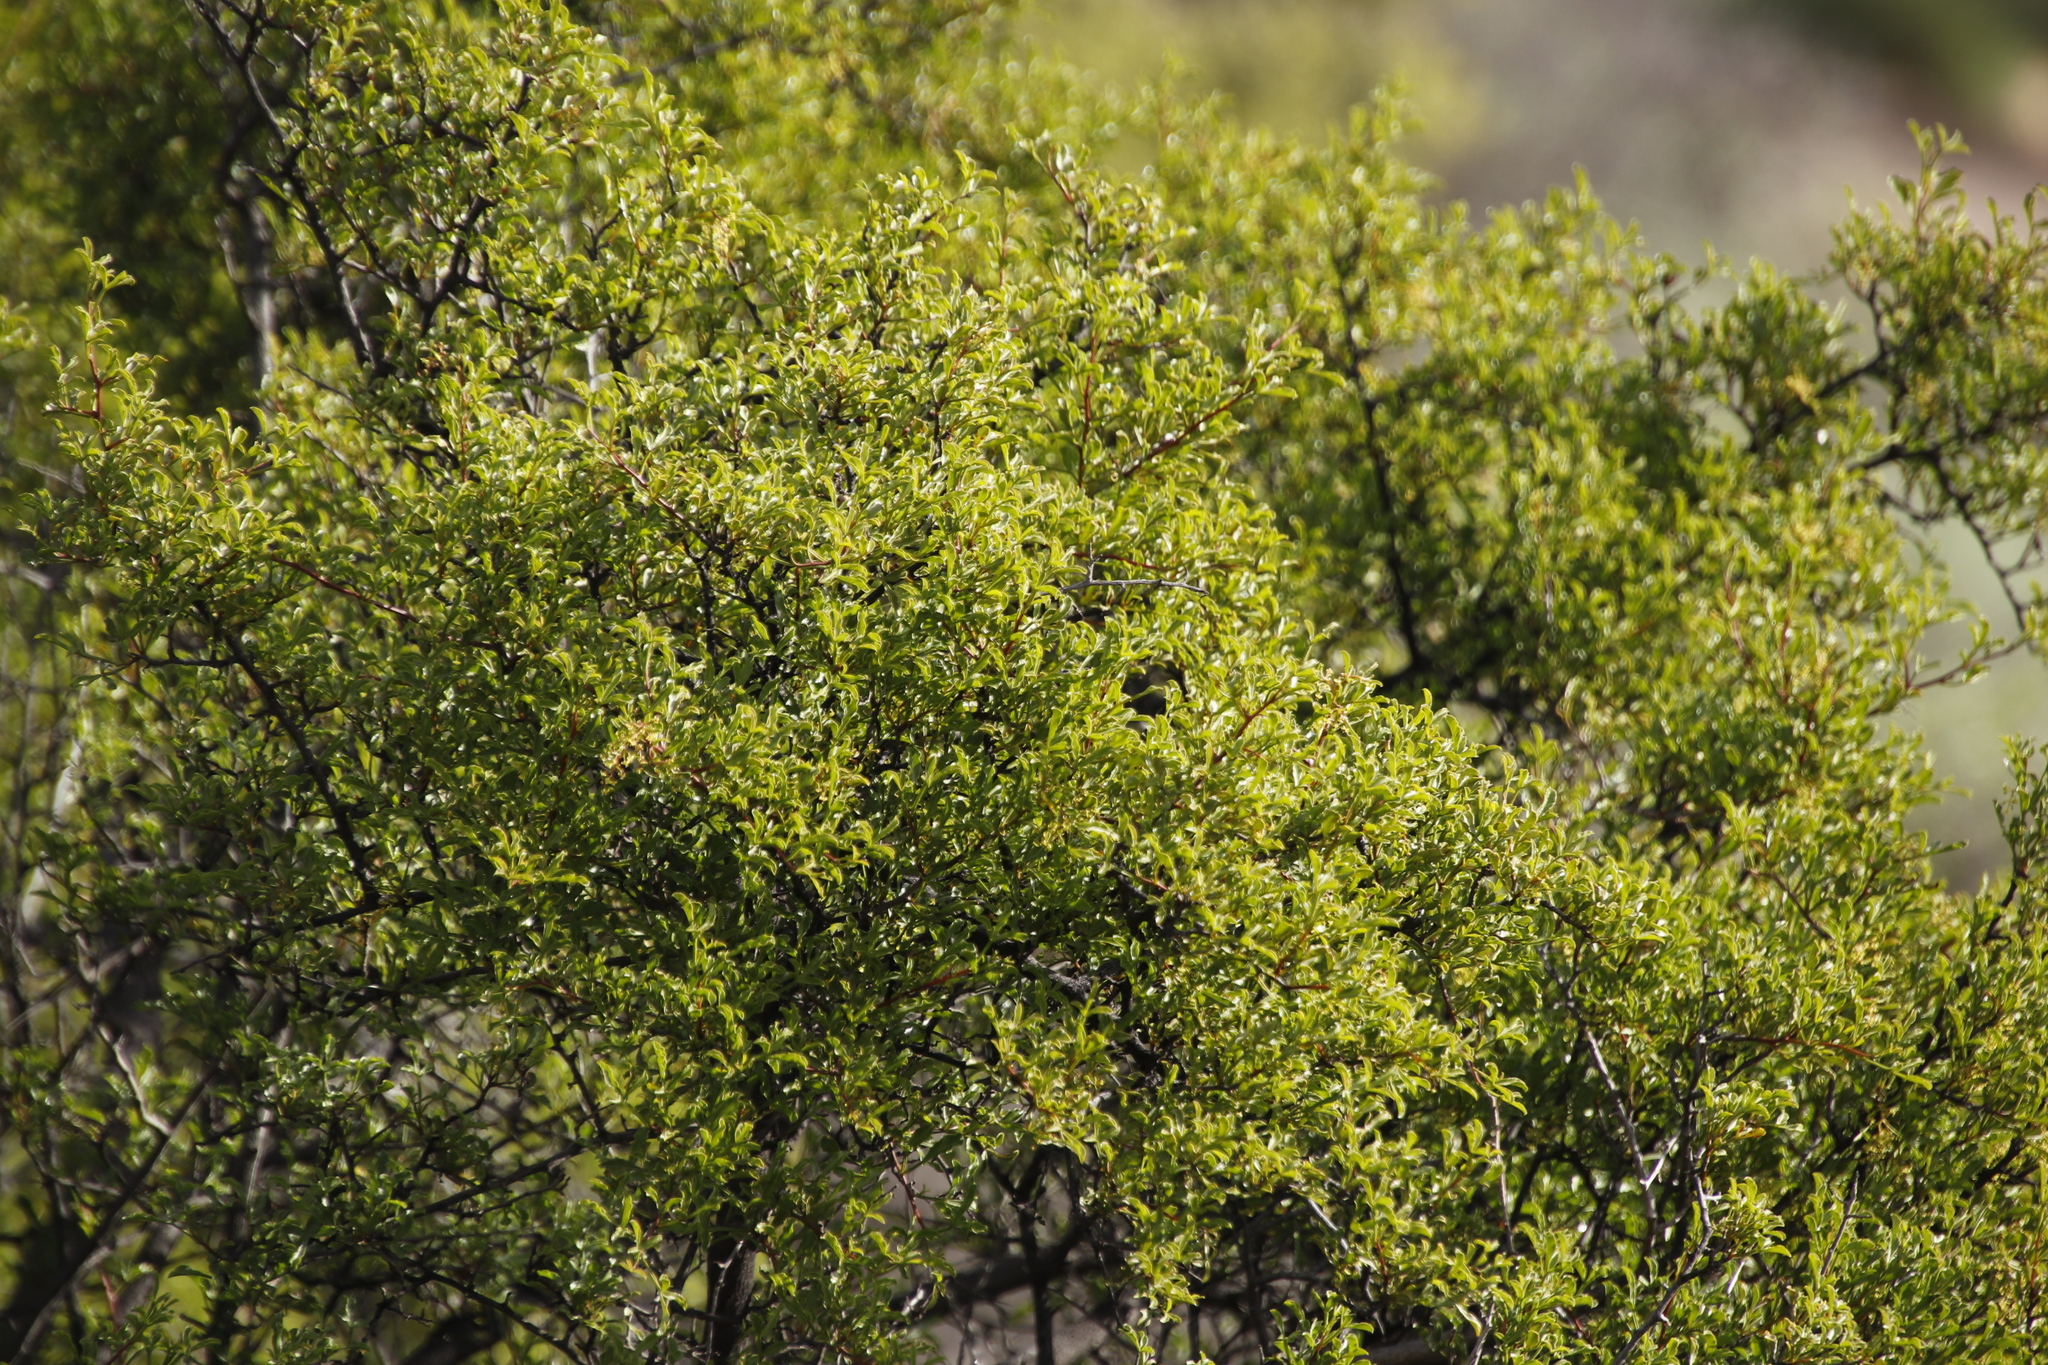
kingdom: Plantae
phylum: Tracheophyta
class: Magnoliopsida
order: Sapindales
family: Anacardiaceae
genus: Searsia
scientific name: Searsia undulata
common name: Namaqua kunibush
